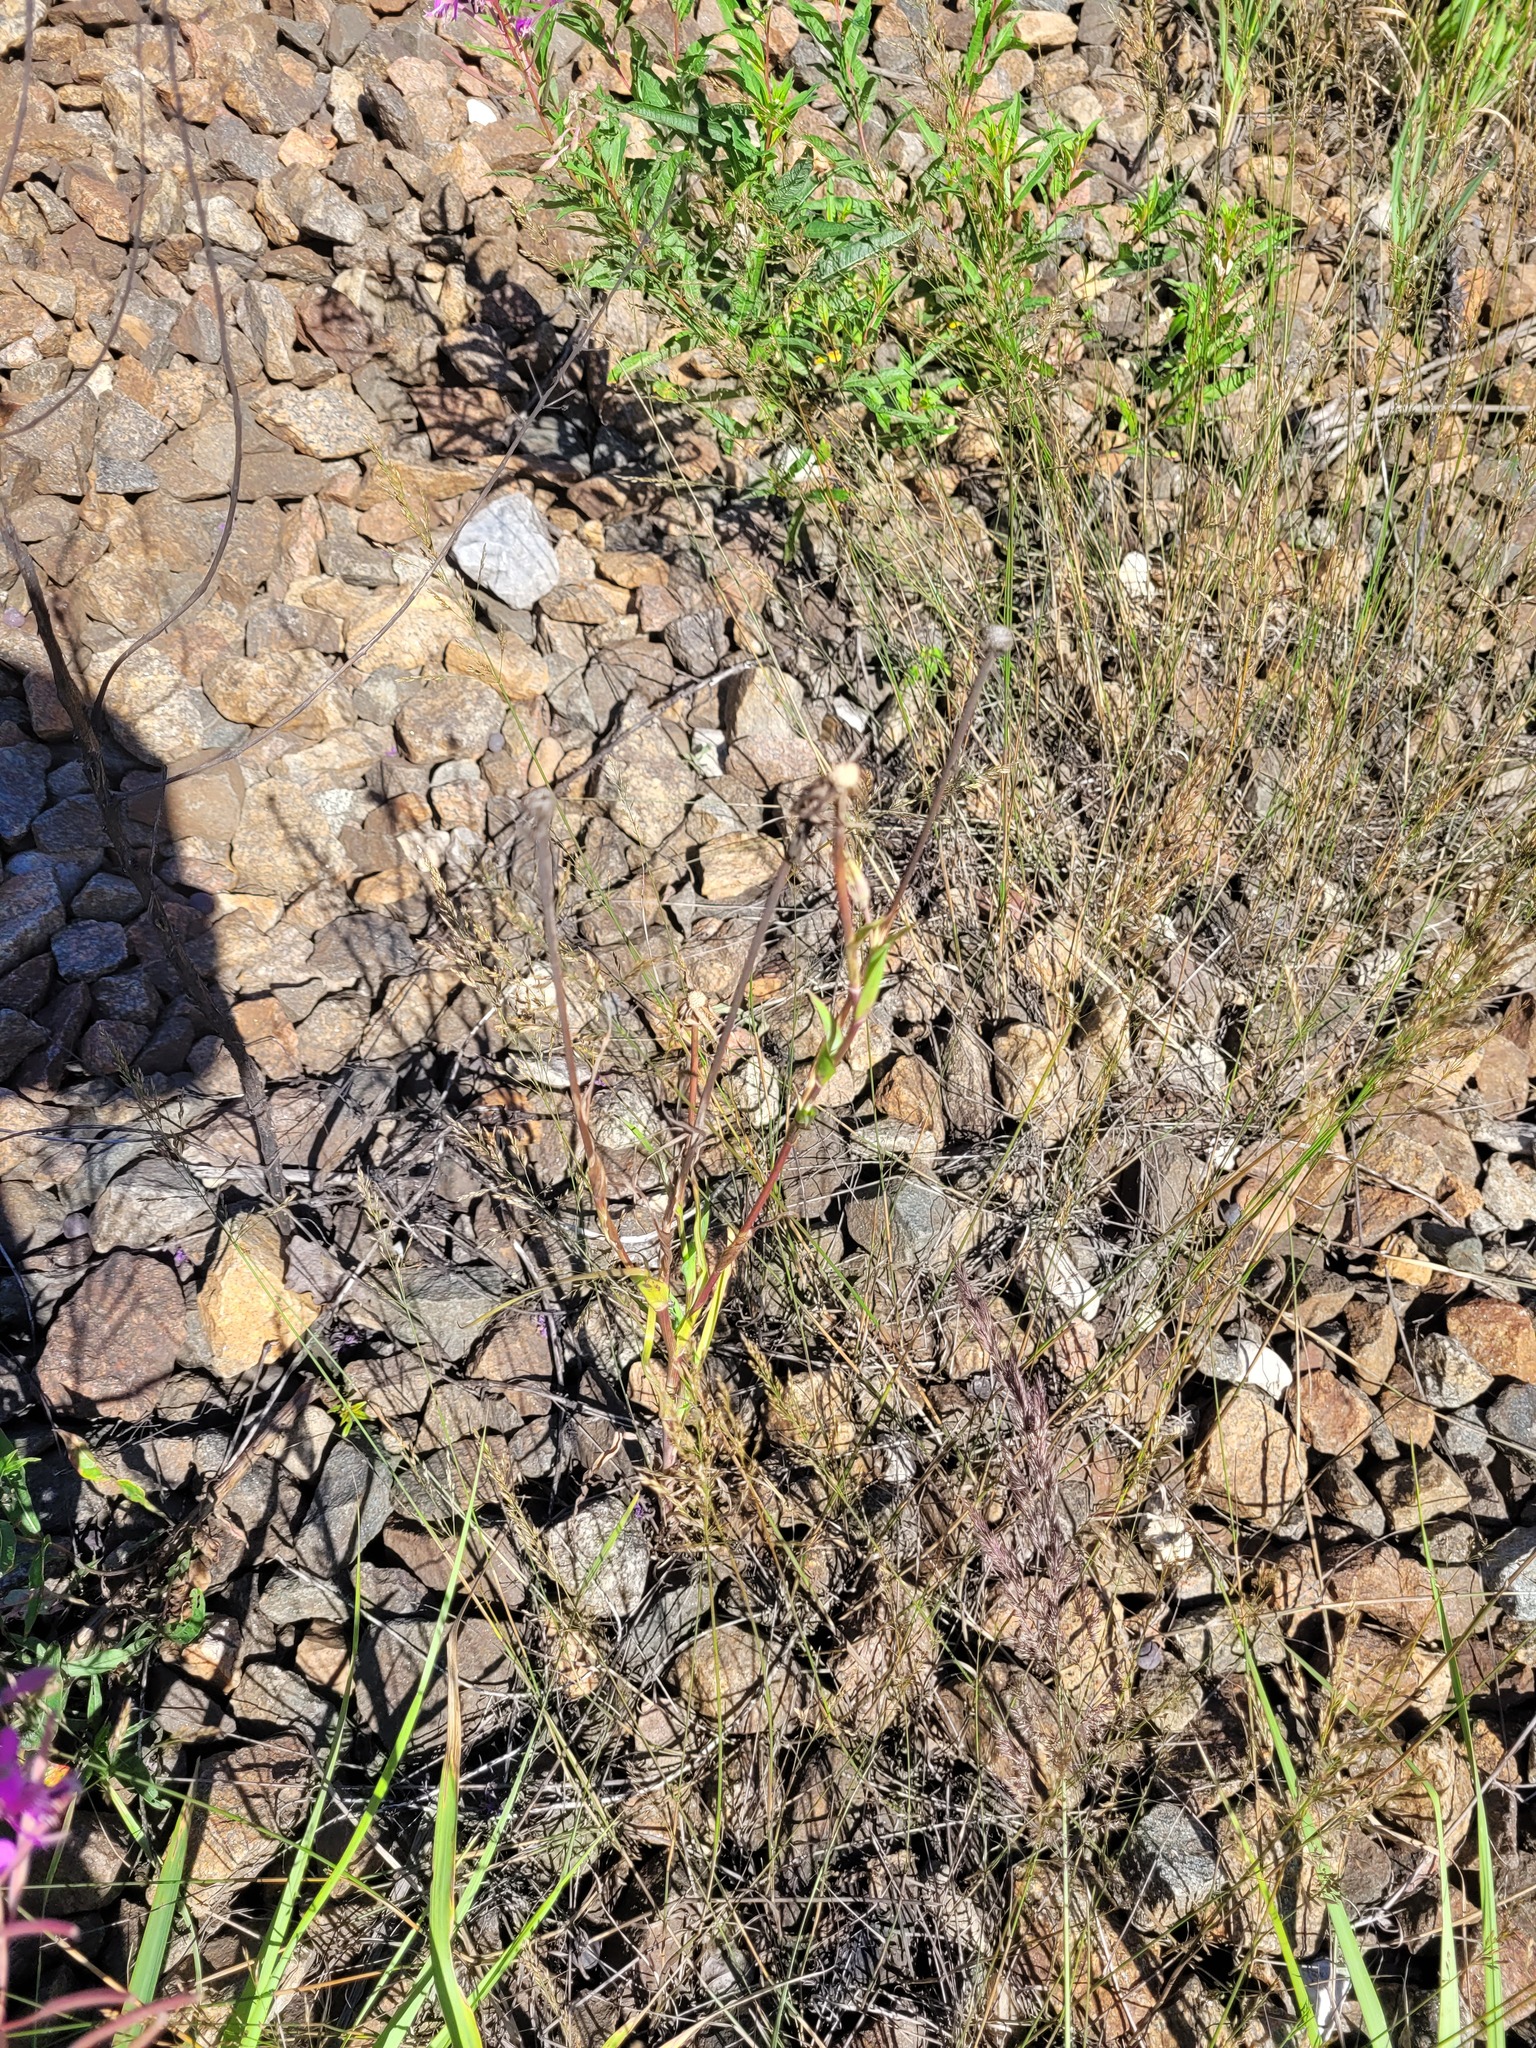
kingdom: Plantae
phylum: Tracheophyta
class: Magnoliopsida
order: Asterales
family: Asteraceae
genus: Tragopogon
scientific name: Tragopogon dubius
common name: Yellow salsify
